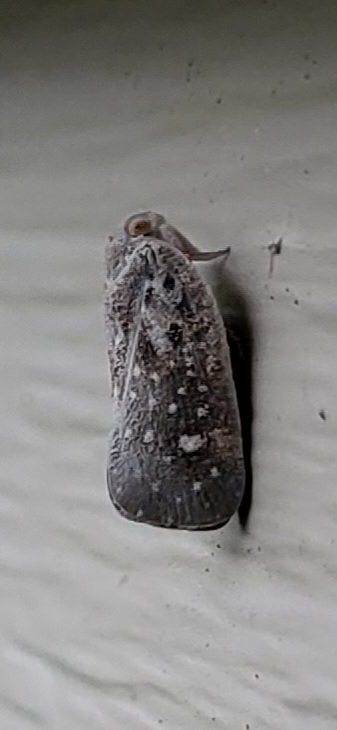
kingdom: Animalia
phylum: Arthropoda
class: Insecta
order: Hemiptera
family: Flatidae
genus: Metcalfa
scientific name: Metcalfa pruinosa
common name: Citrus flatid planthopper
